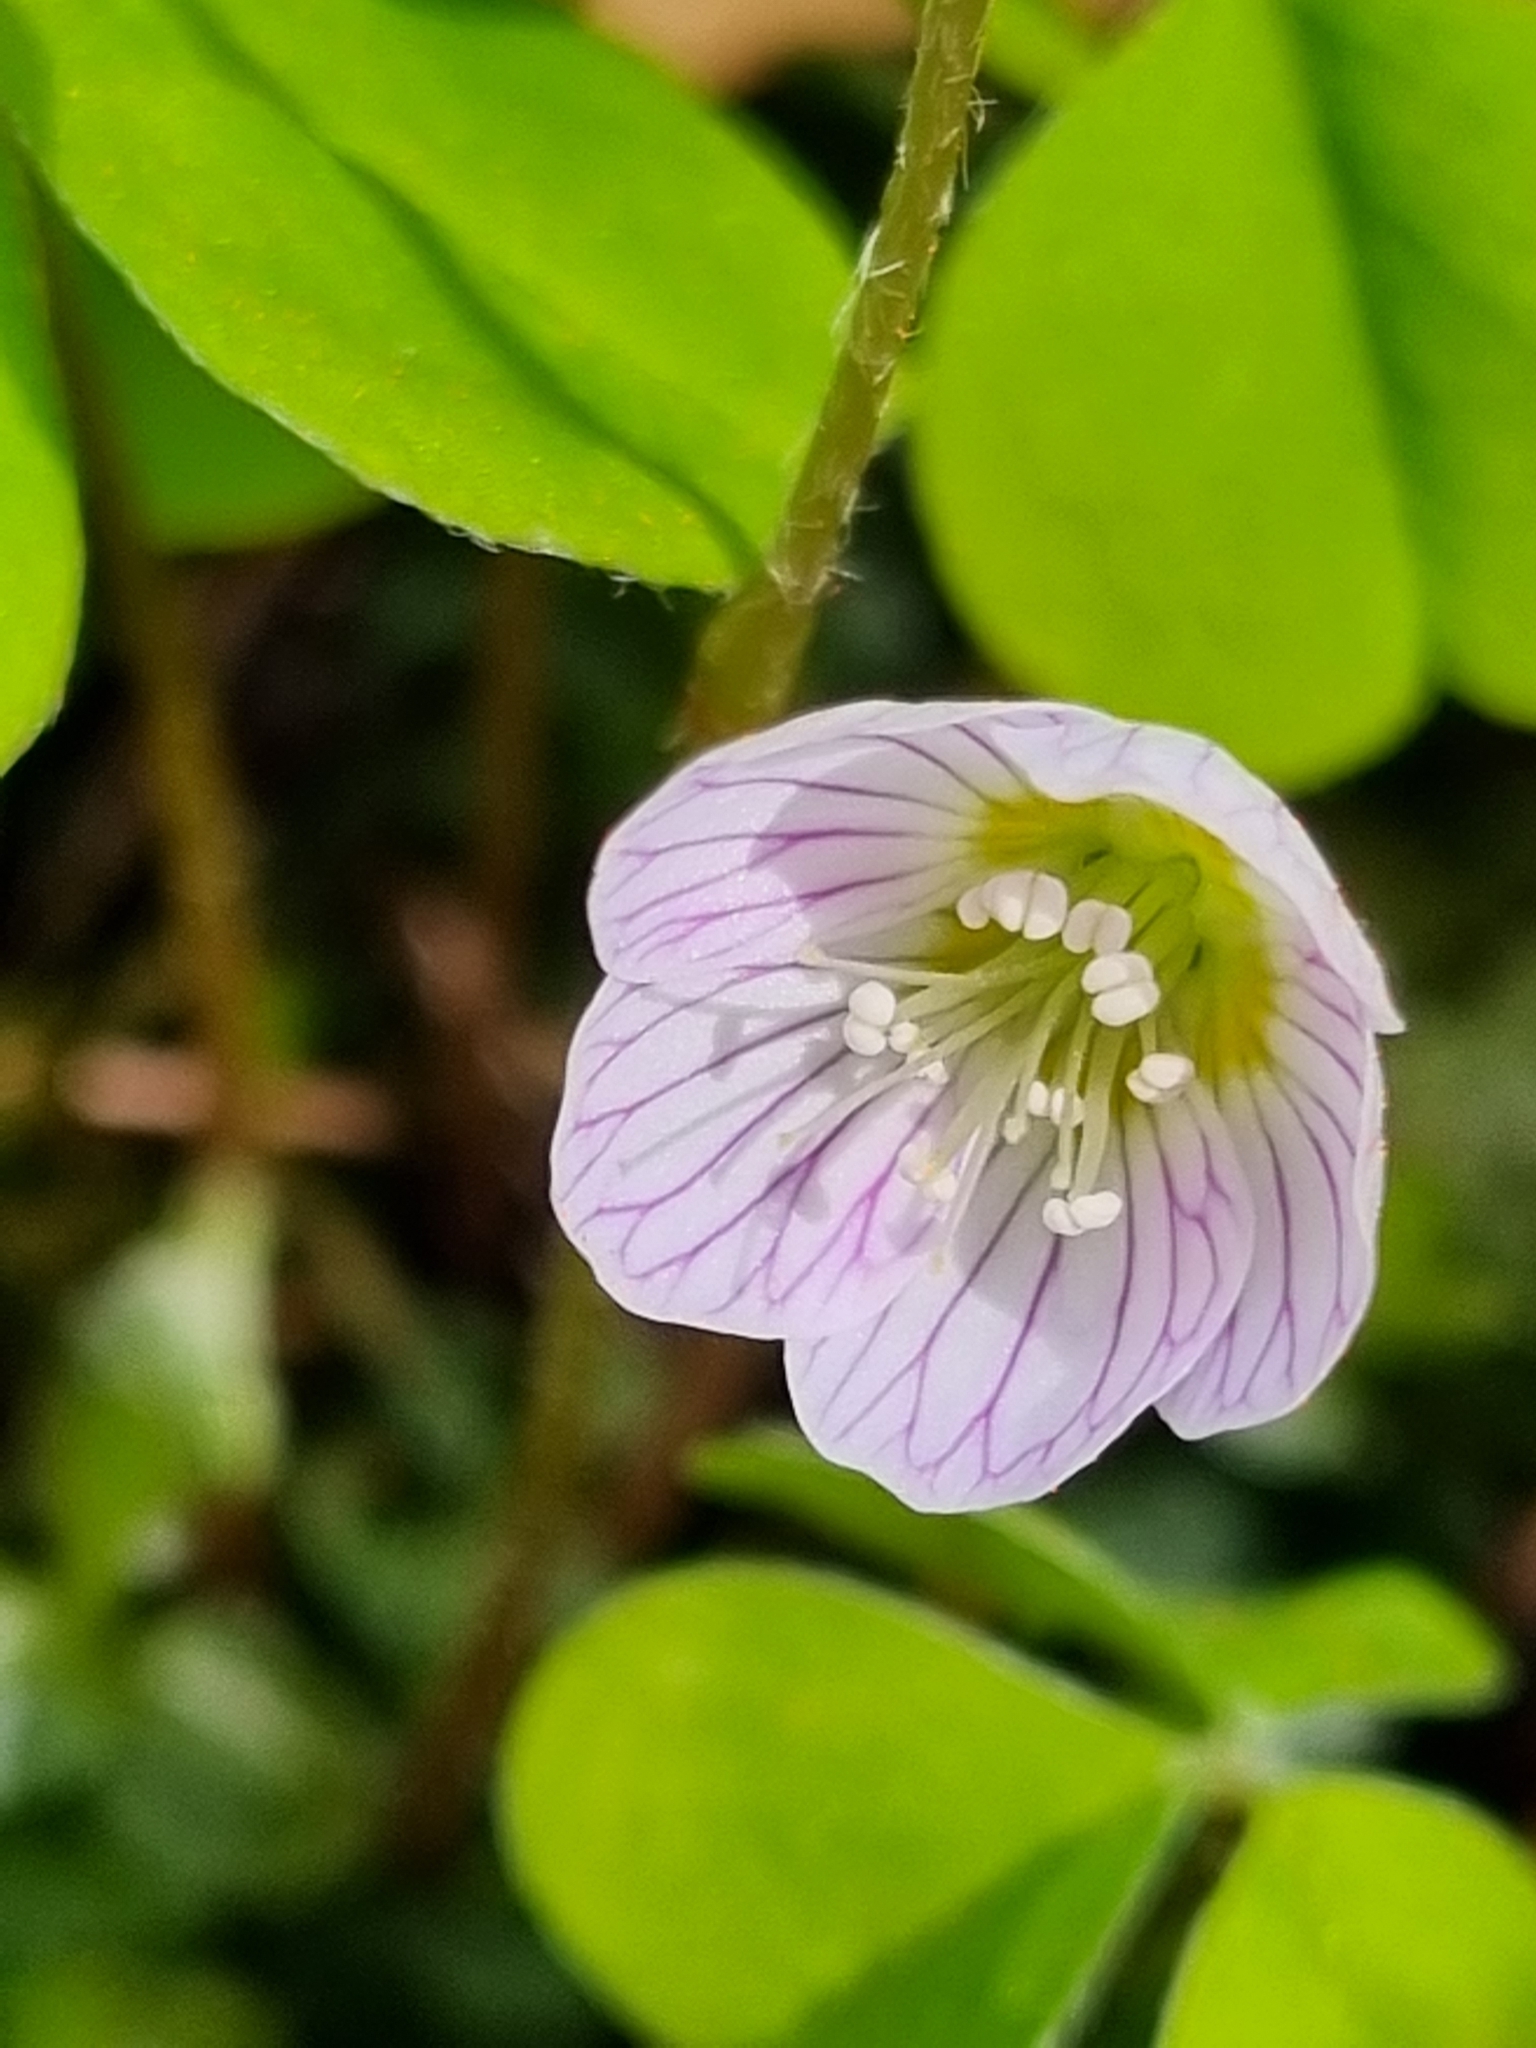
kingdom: Plantae
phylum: Tracheophyta
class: Magnoliopsida
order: Oxalidales
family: Oxalidaceae
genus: Oxalis
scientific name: Oxalis acetosella
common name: Wood-sorrel
